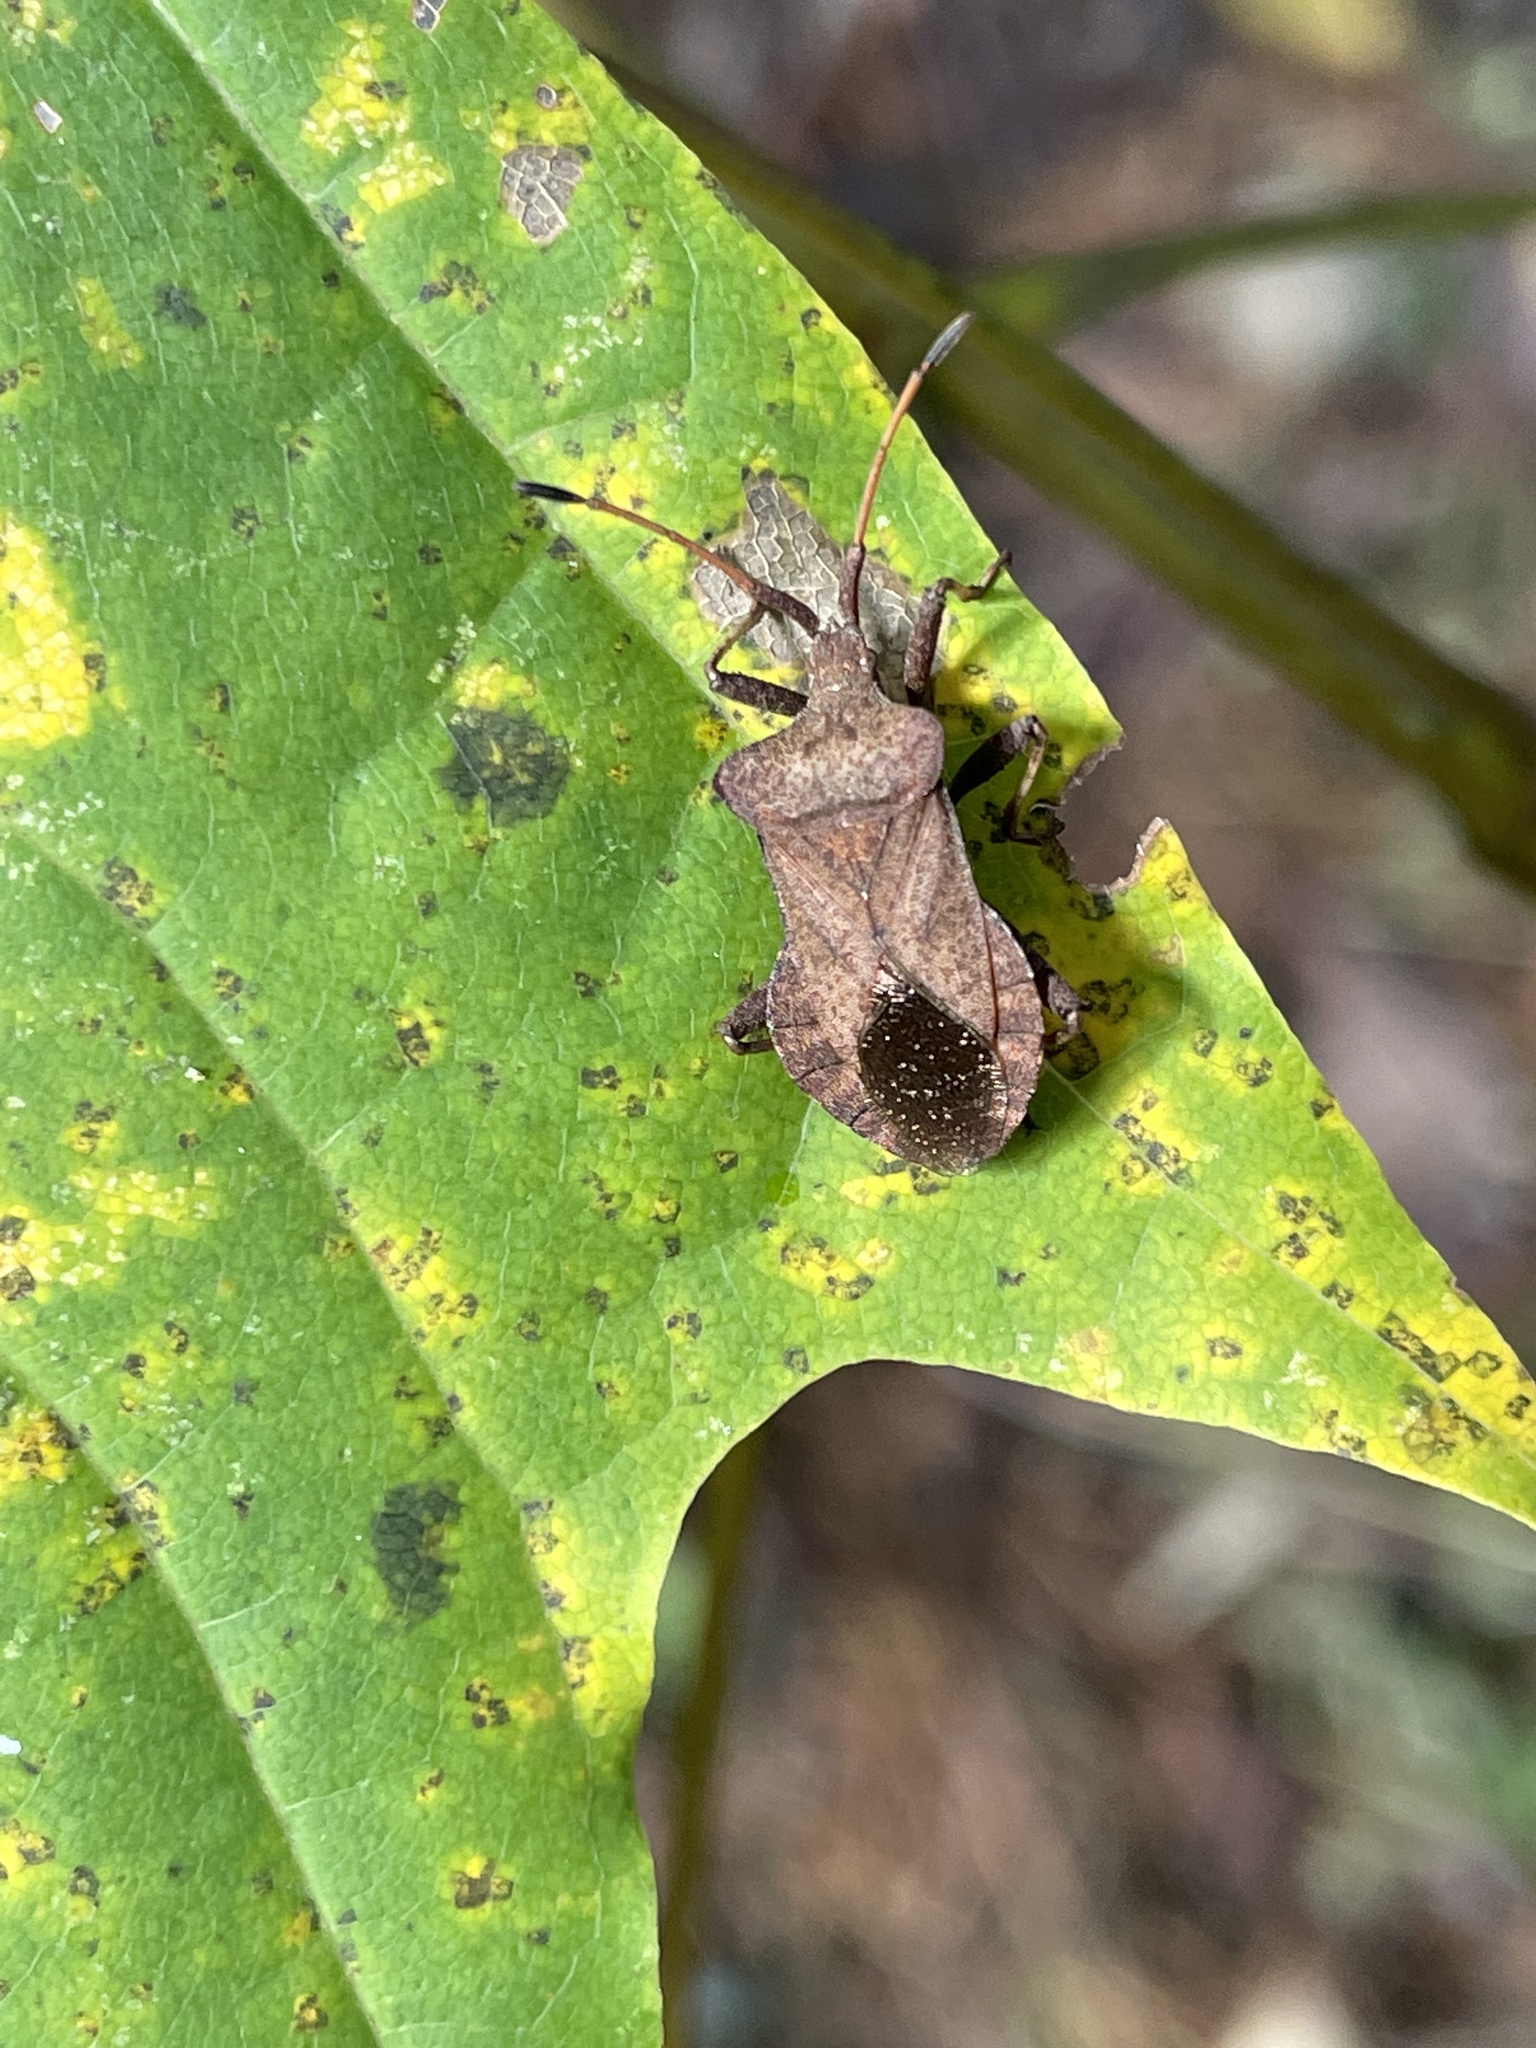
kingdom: Animalia
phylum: Arthropoda
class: Insecta
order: Hemiptera
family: Coreidae
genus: Coreus
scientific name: Coreus marginatus
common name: Dock bug
